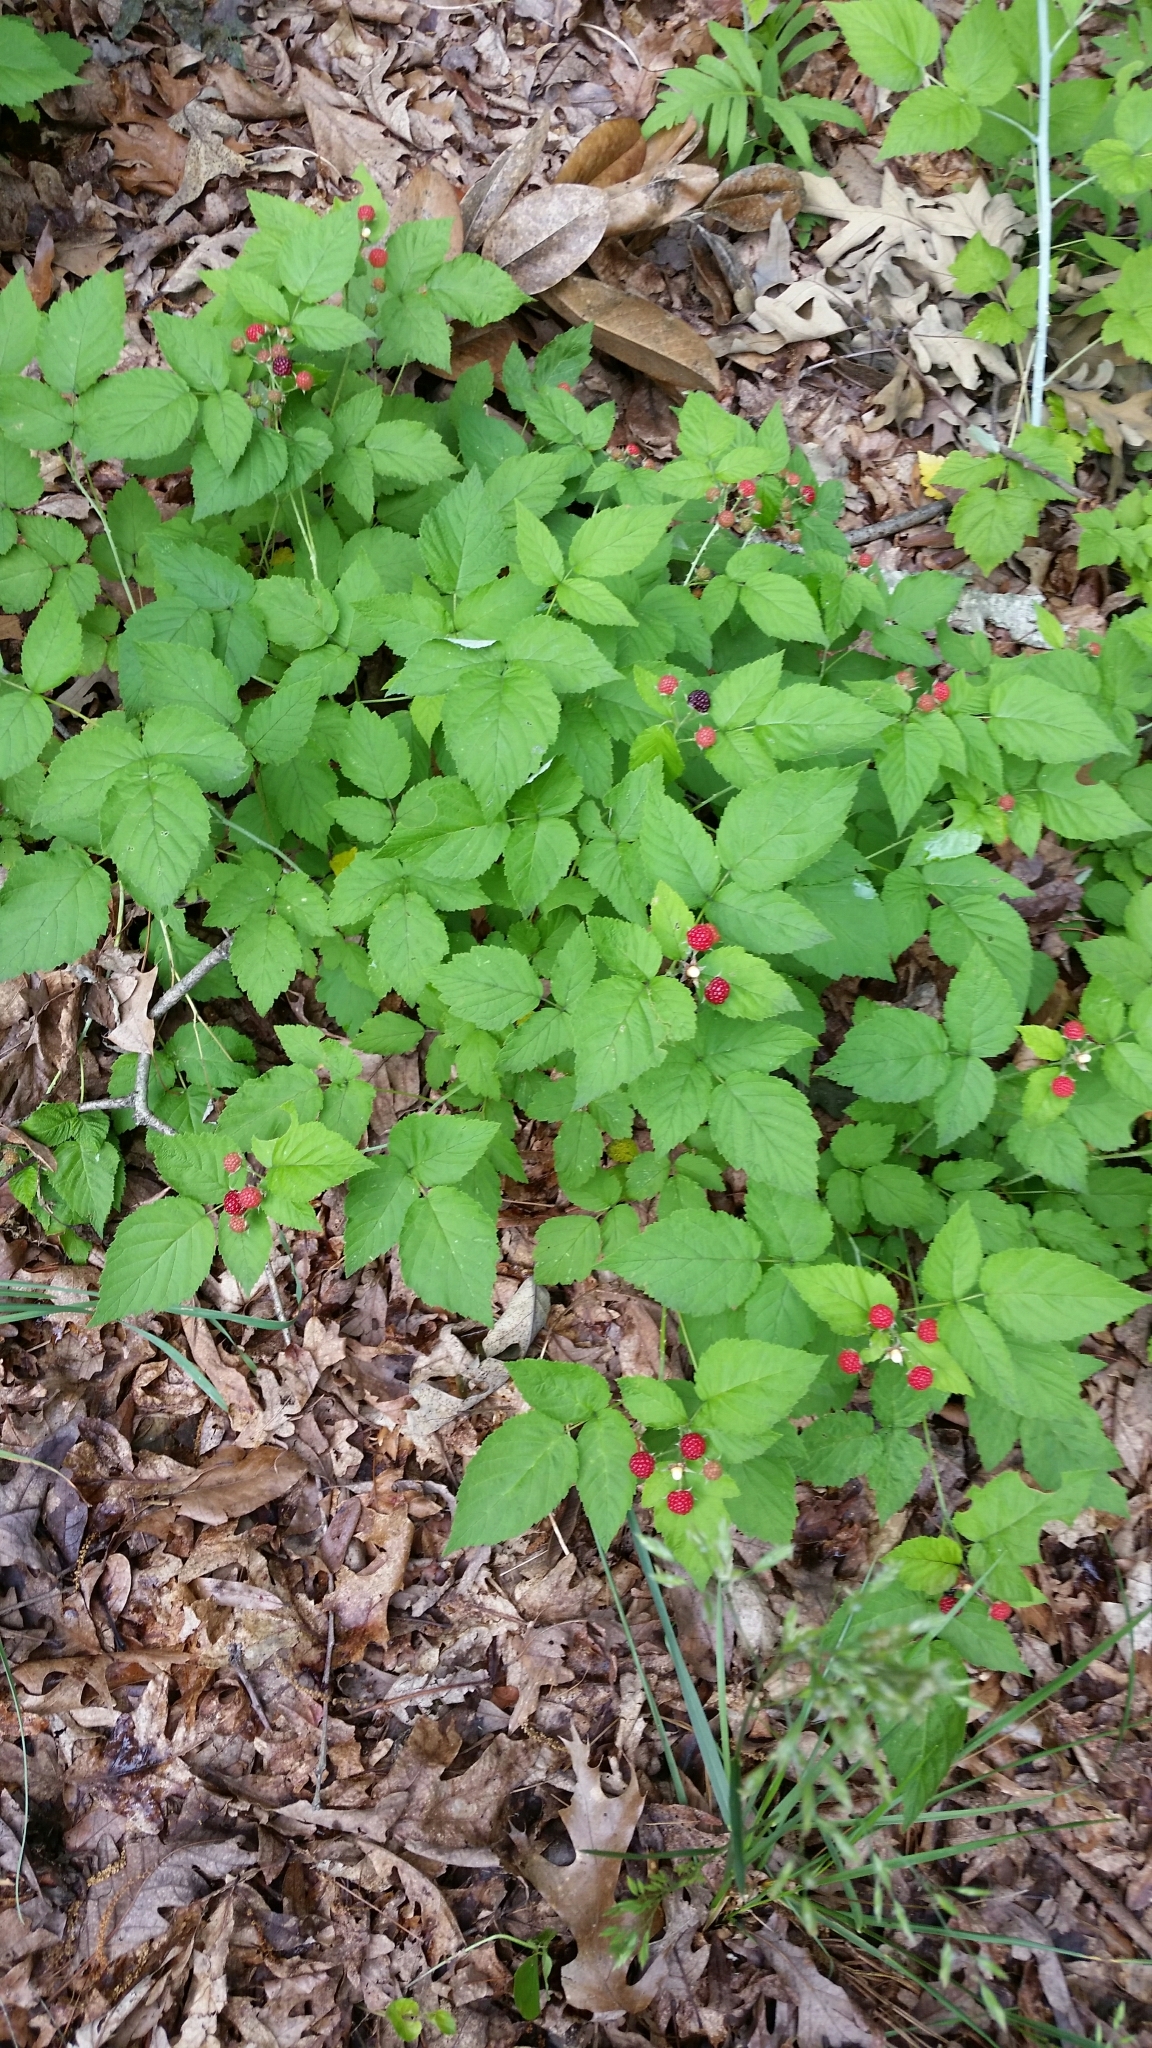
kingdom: Plantae
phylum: Tracheophyta
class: Magnoliopsida
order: Rosales
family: Rosaceae
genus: Rubus
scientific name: Rubus occidentalis
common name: Black raspberry
